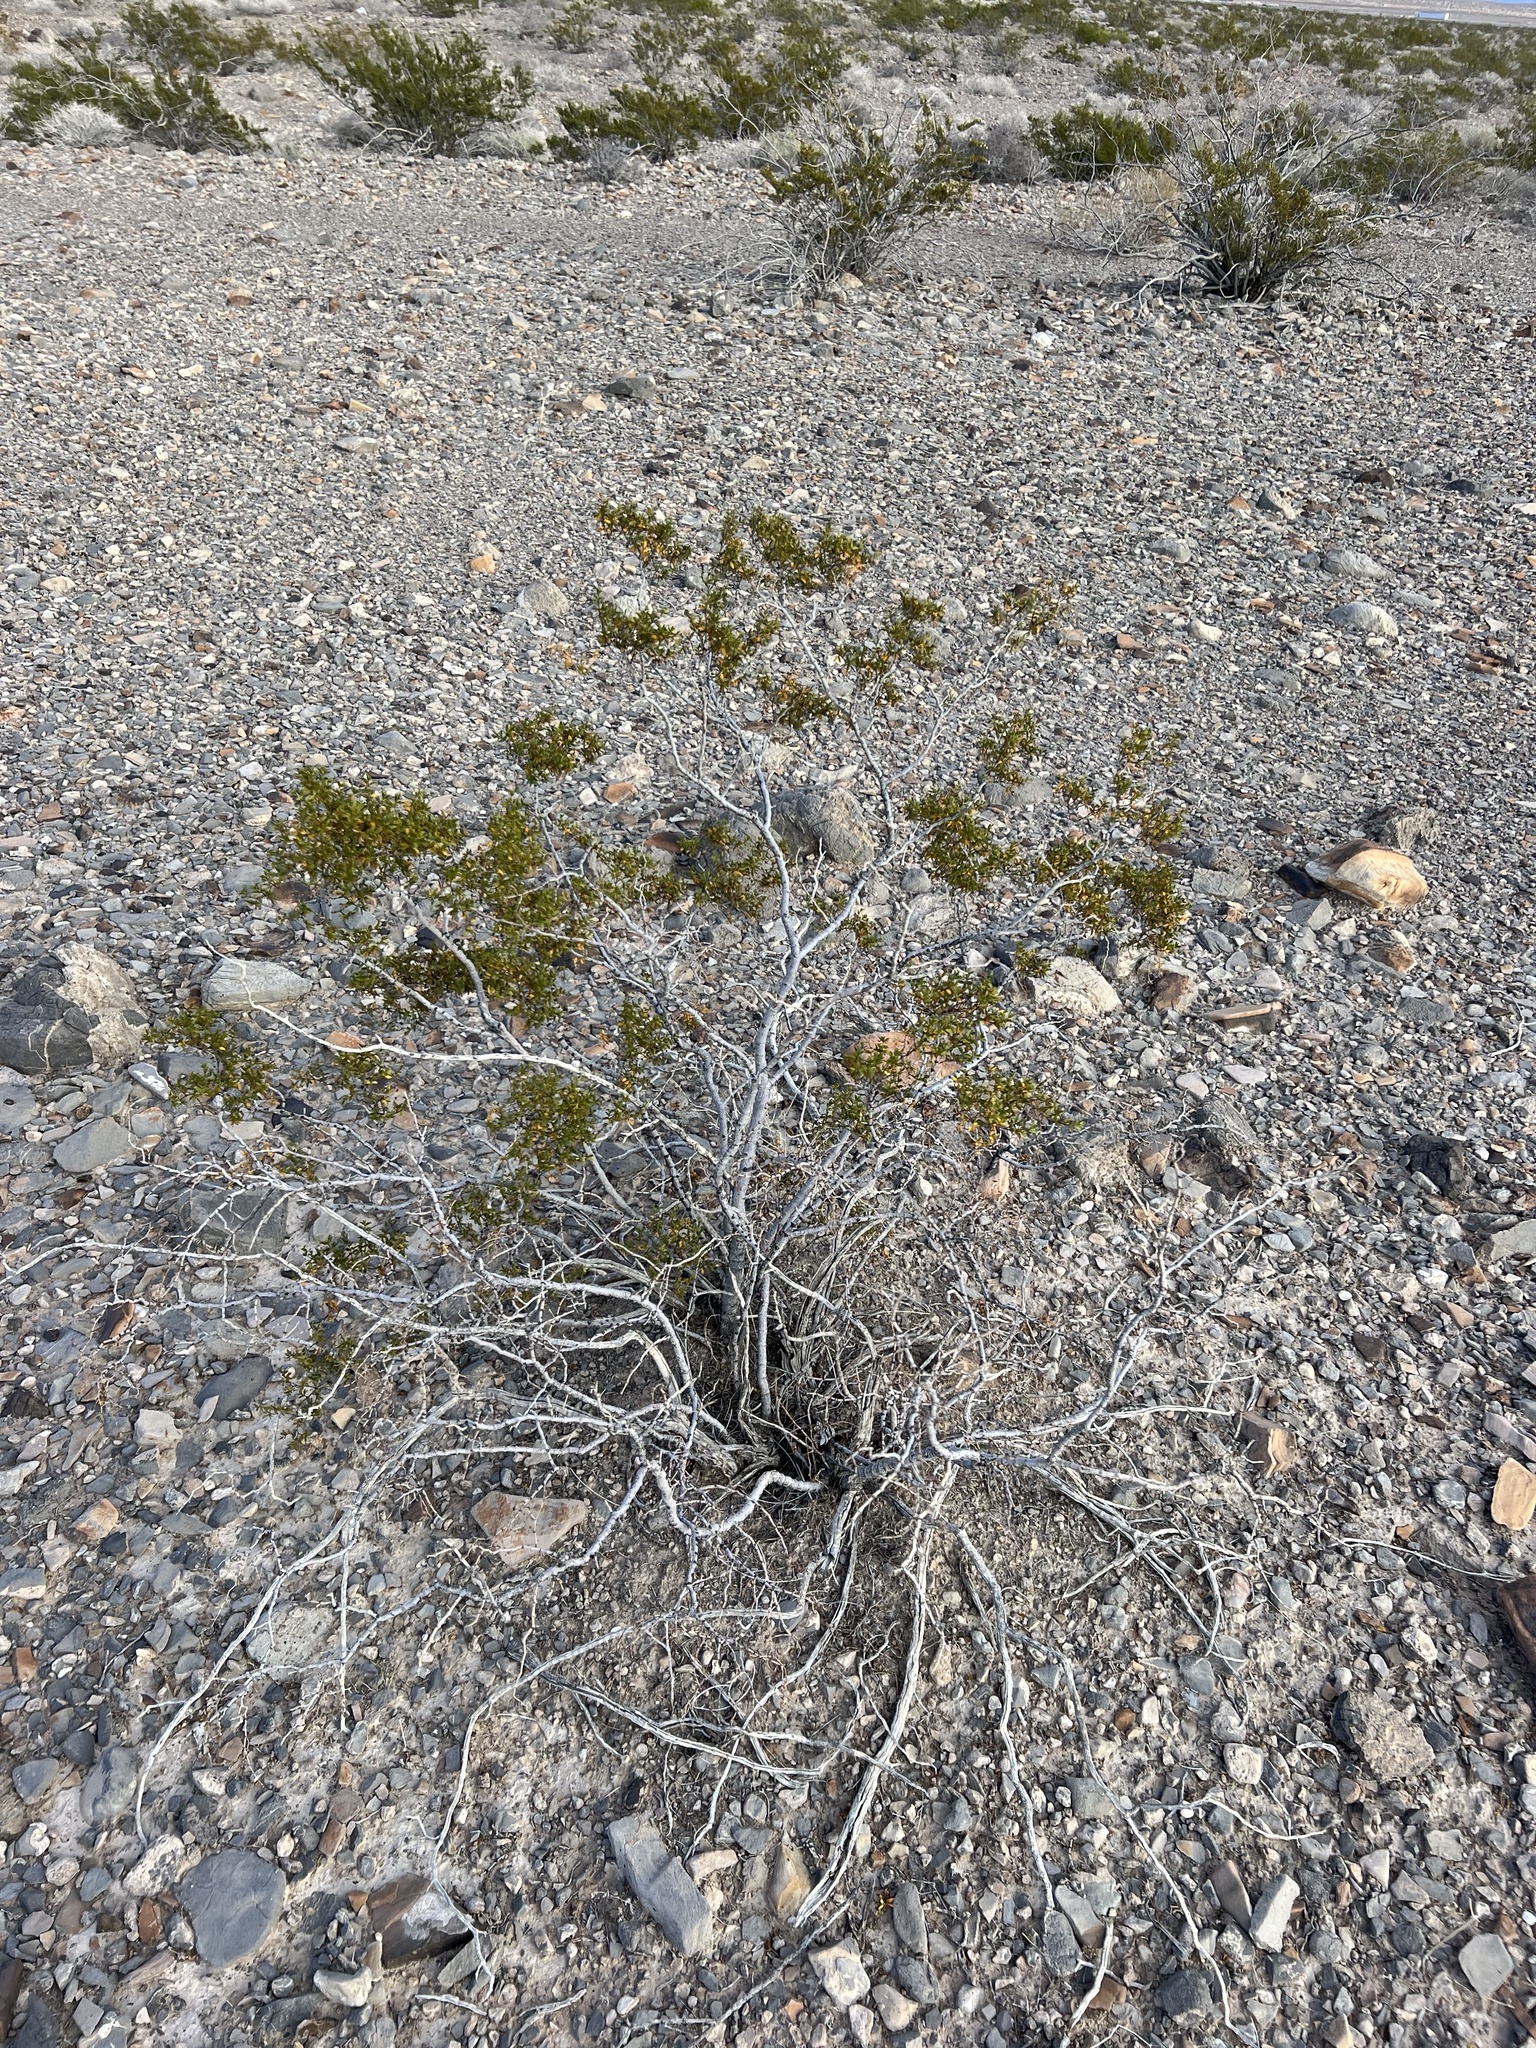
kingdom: Plantae
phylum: Tracheophyta
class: Magnoliopsida
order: Zygophyllales
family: Zygophyllaceae
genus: Larrea
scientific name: Larrea tridentata
